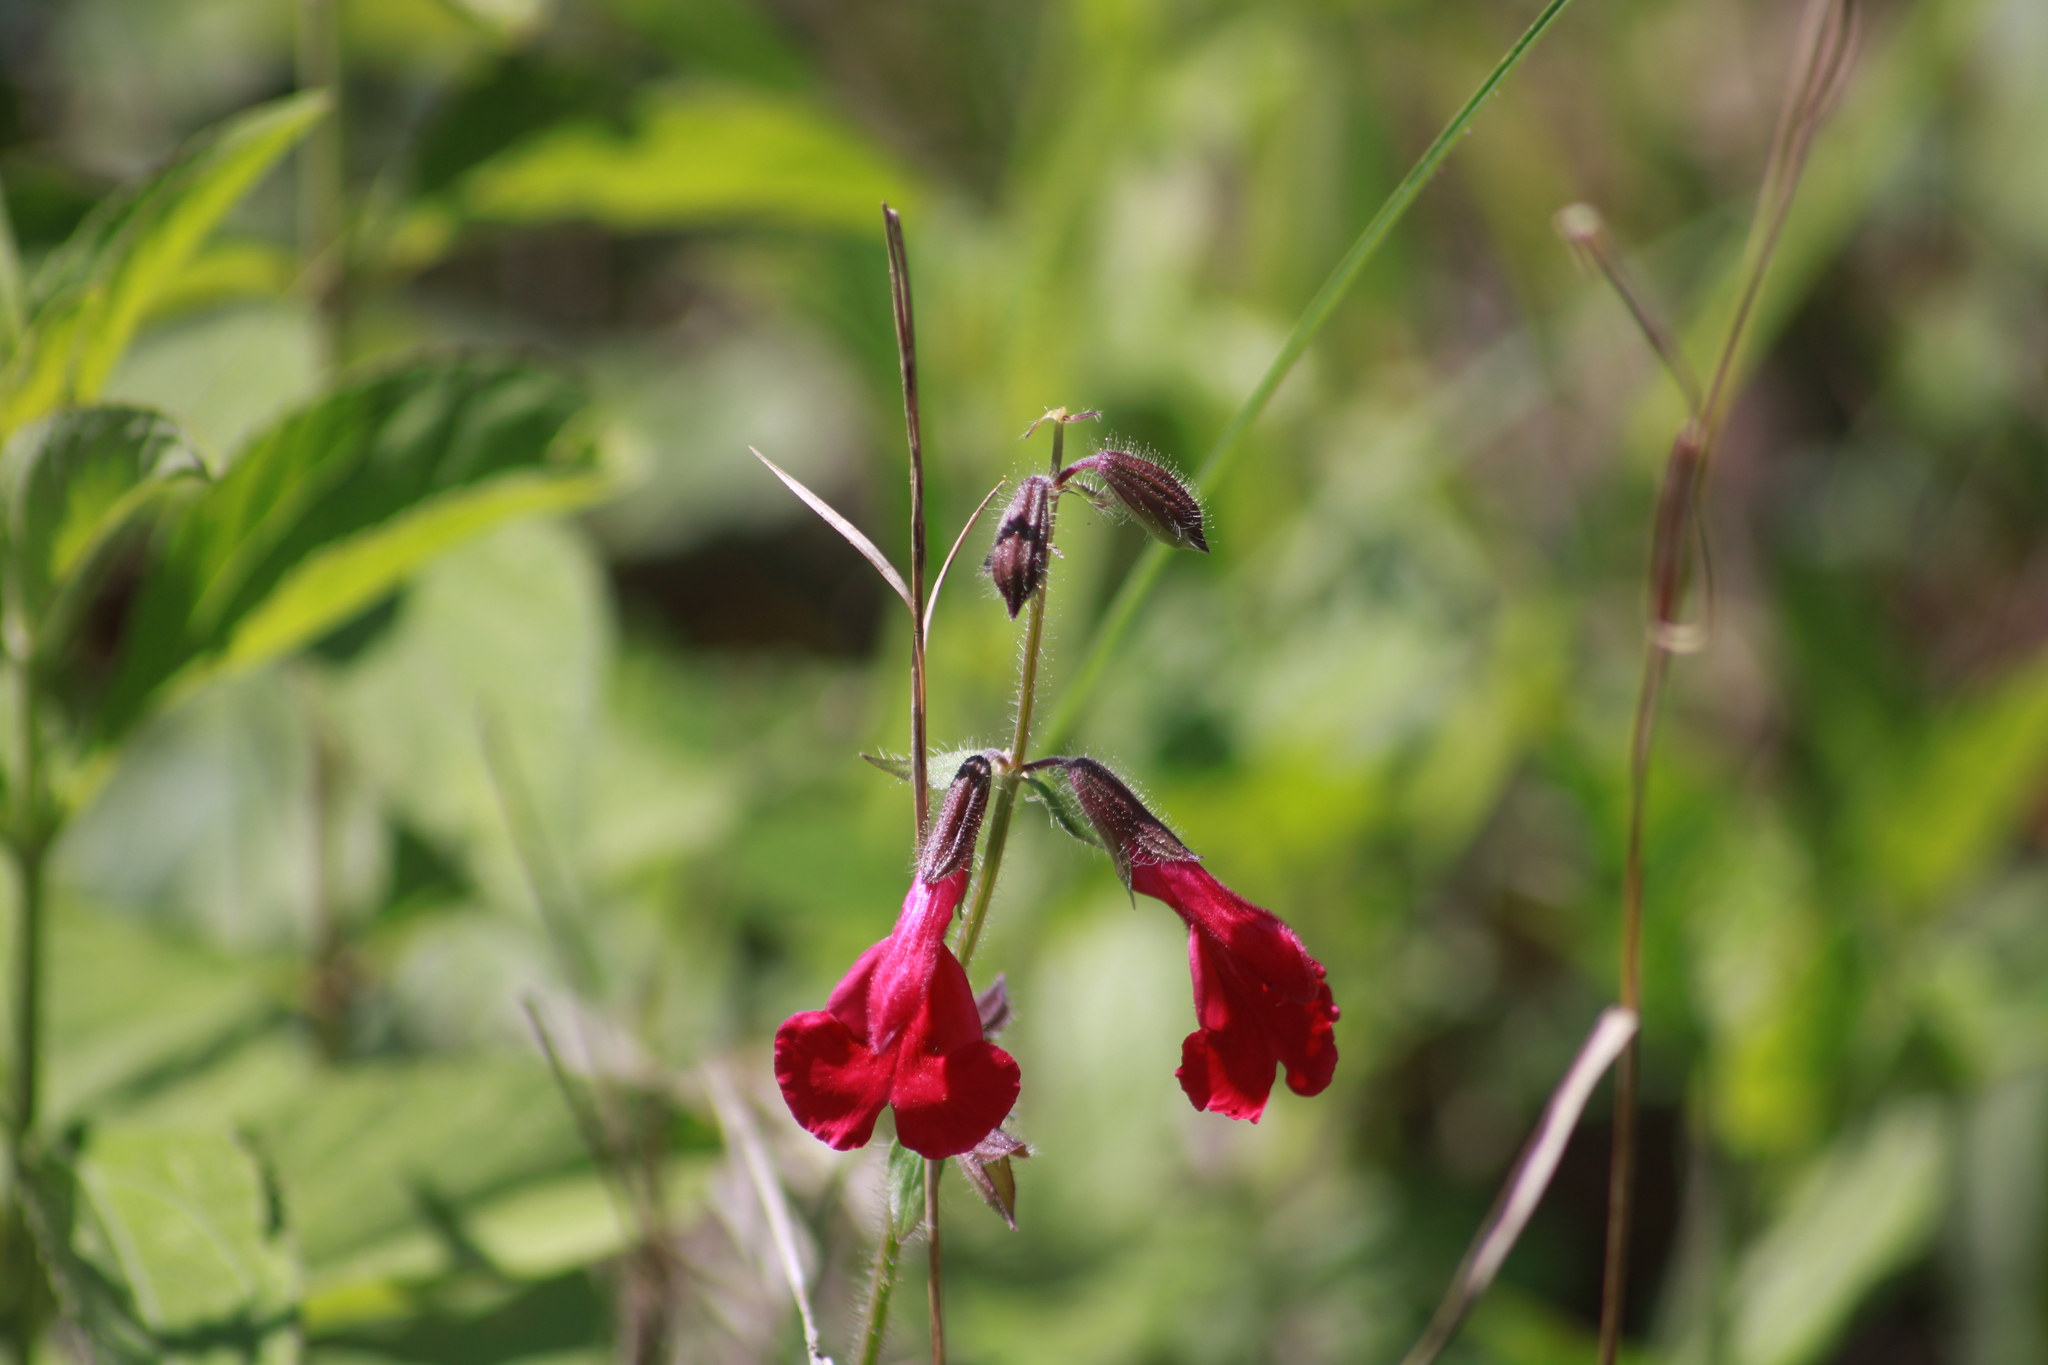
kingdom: Plantae
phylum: Tracheophyta
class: Magnoliopsida
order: Lamiales
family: Lamiaceae
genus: Salvia
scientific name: Salvia angustiarum
